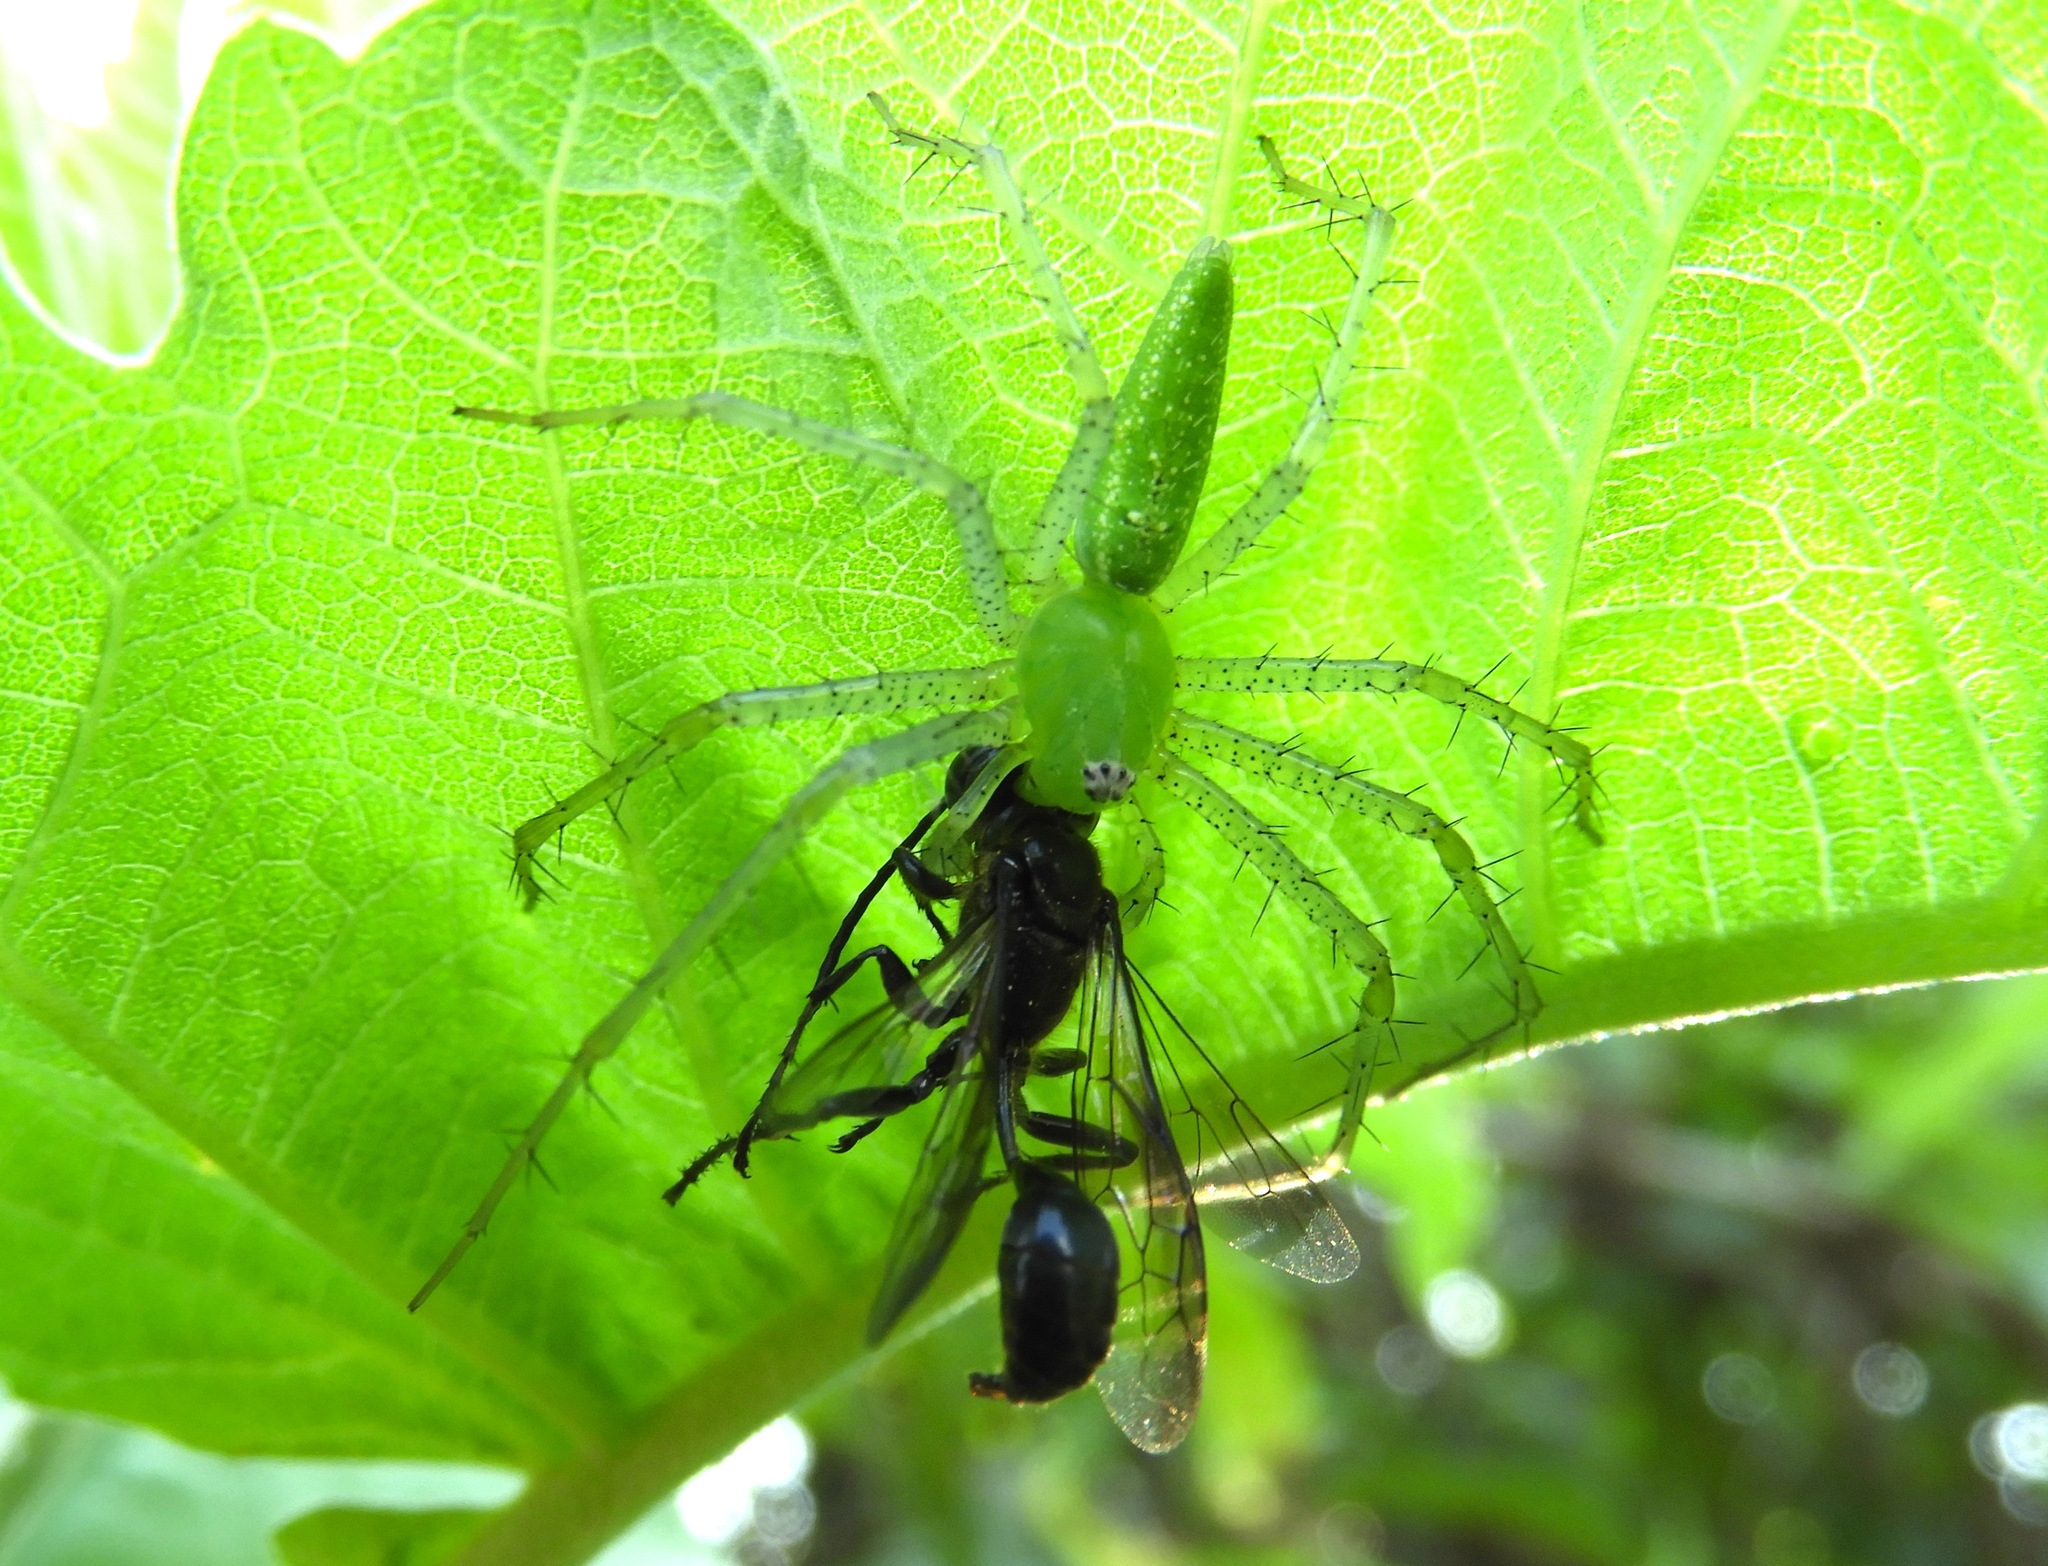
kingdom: Animalia
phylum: Arthropoda
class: Arachnida
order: Araneae
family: Oxyopidae
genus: Peucetia
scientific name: Peucetia longipalpis
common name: Lynx spiders
